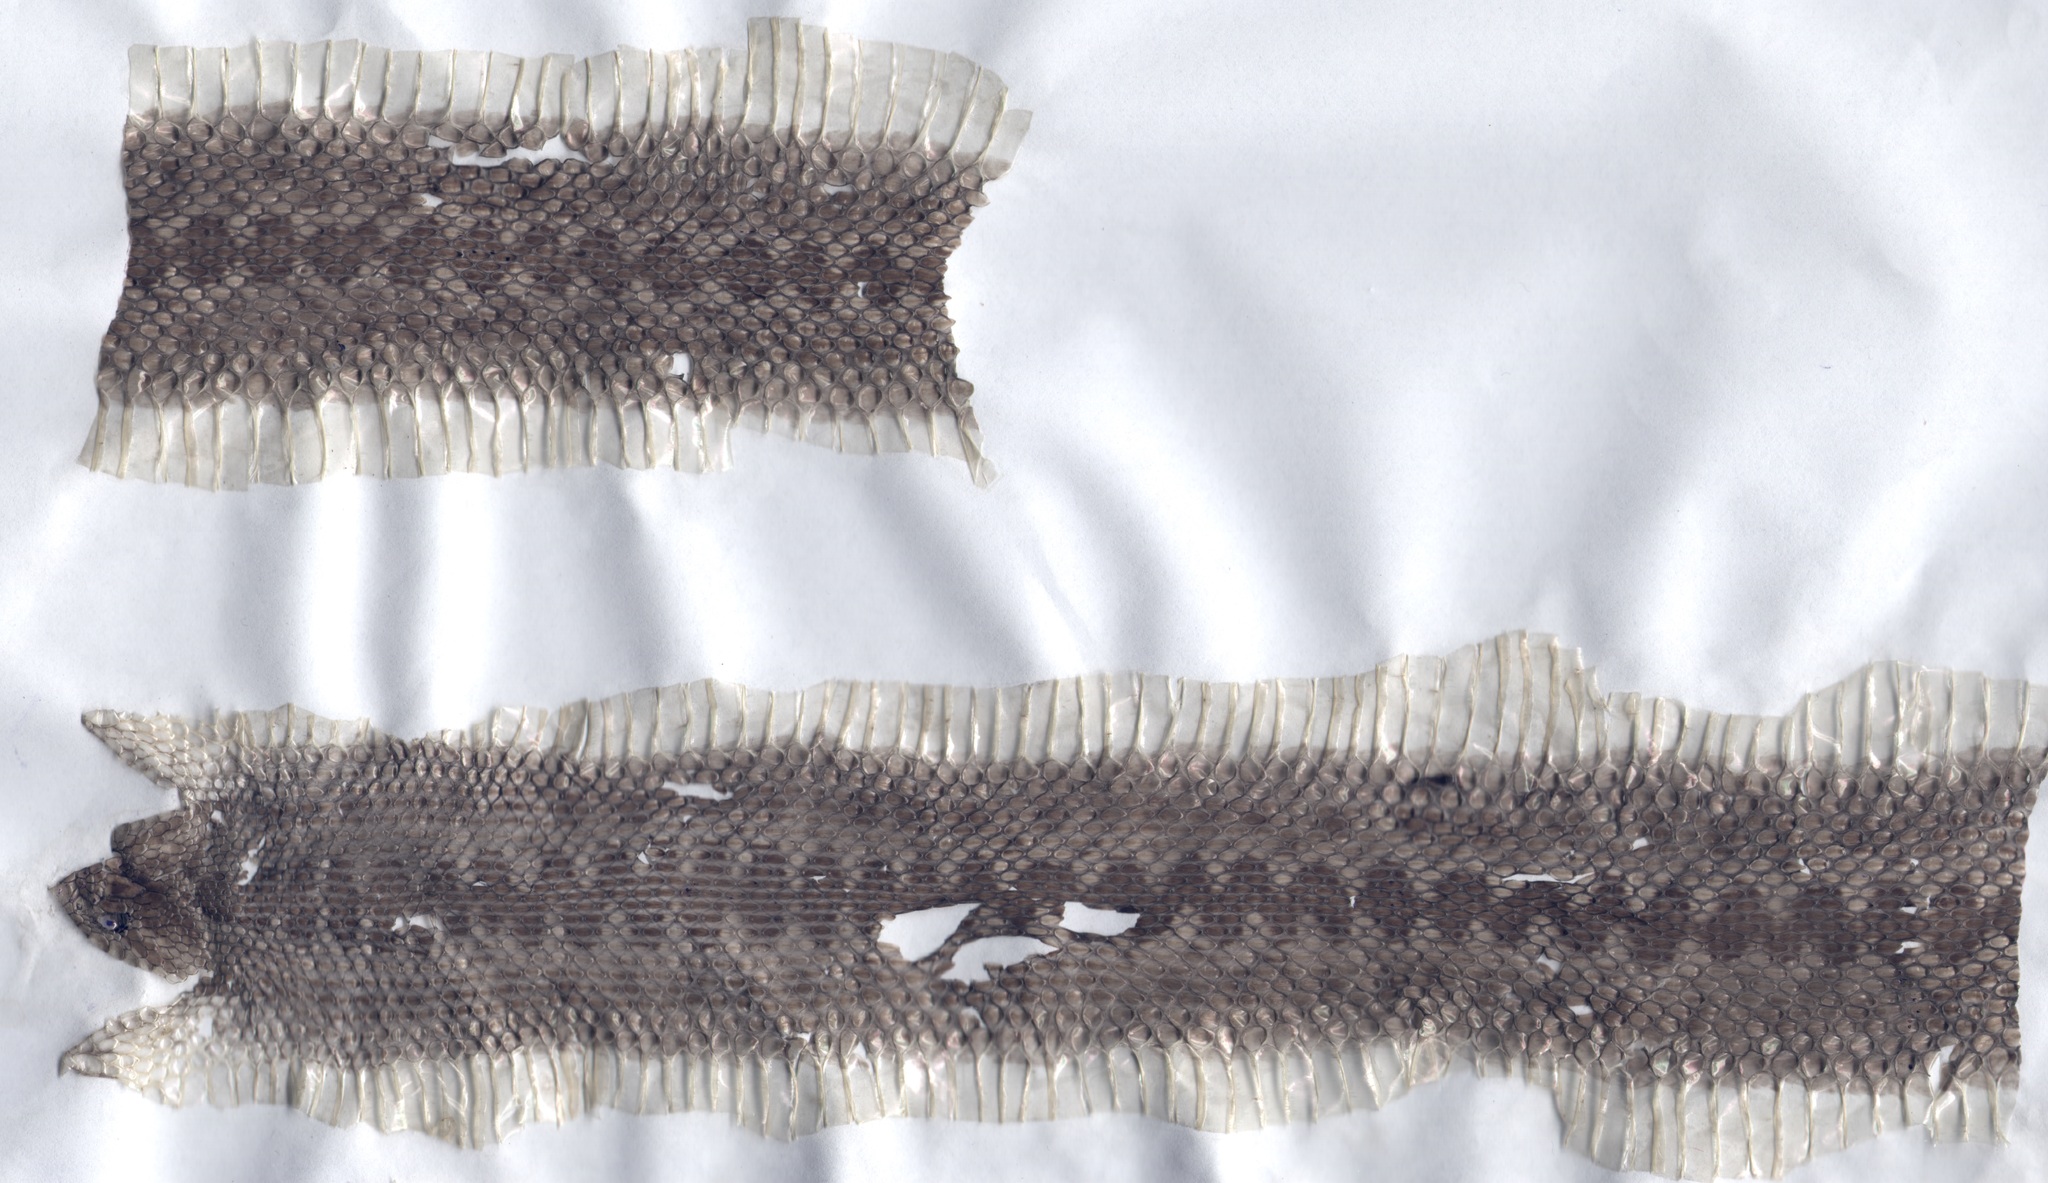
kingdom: Animalia
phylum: Chordata
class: Squamata
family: Viperidae
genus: Vipera
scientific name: Vipera eriwanensis
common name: Alburzi viper
